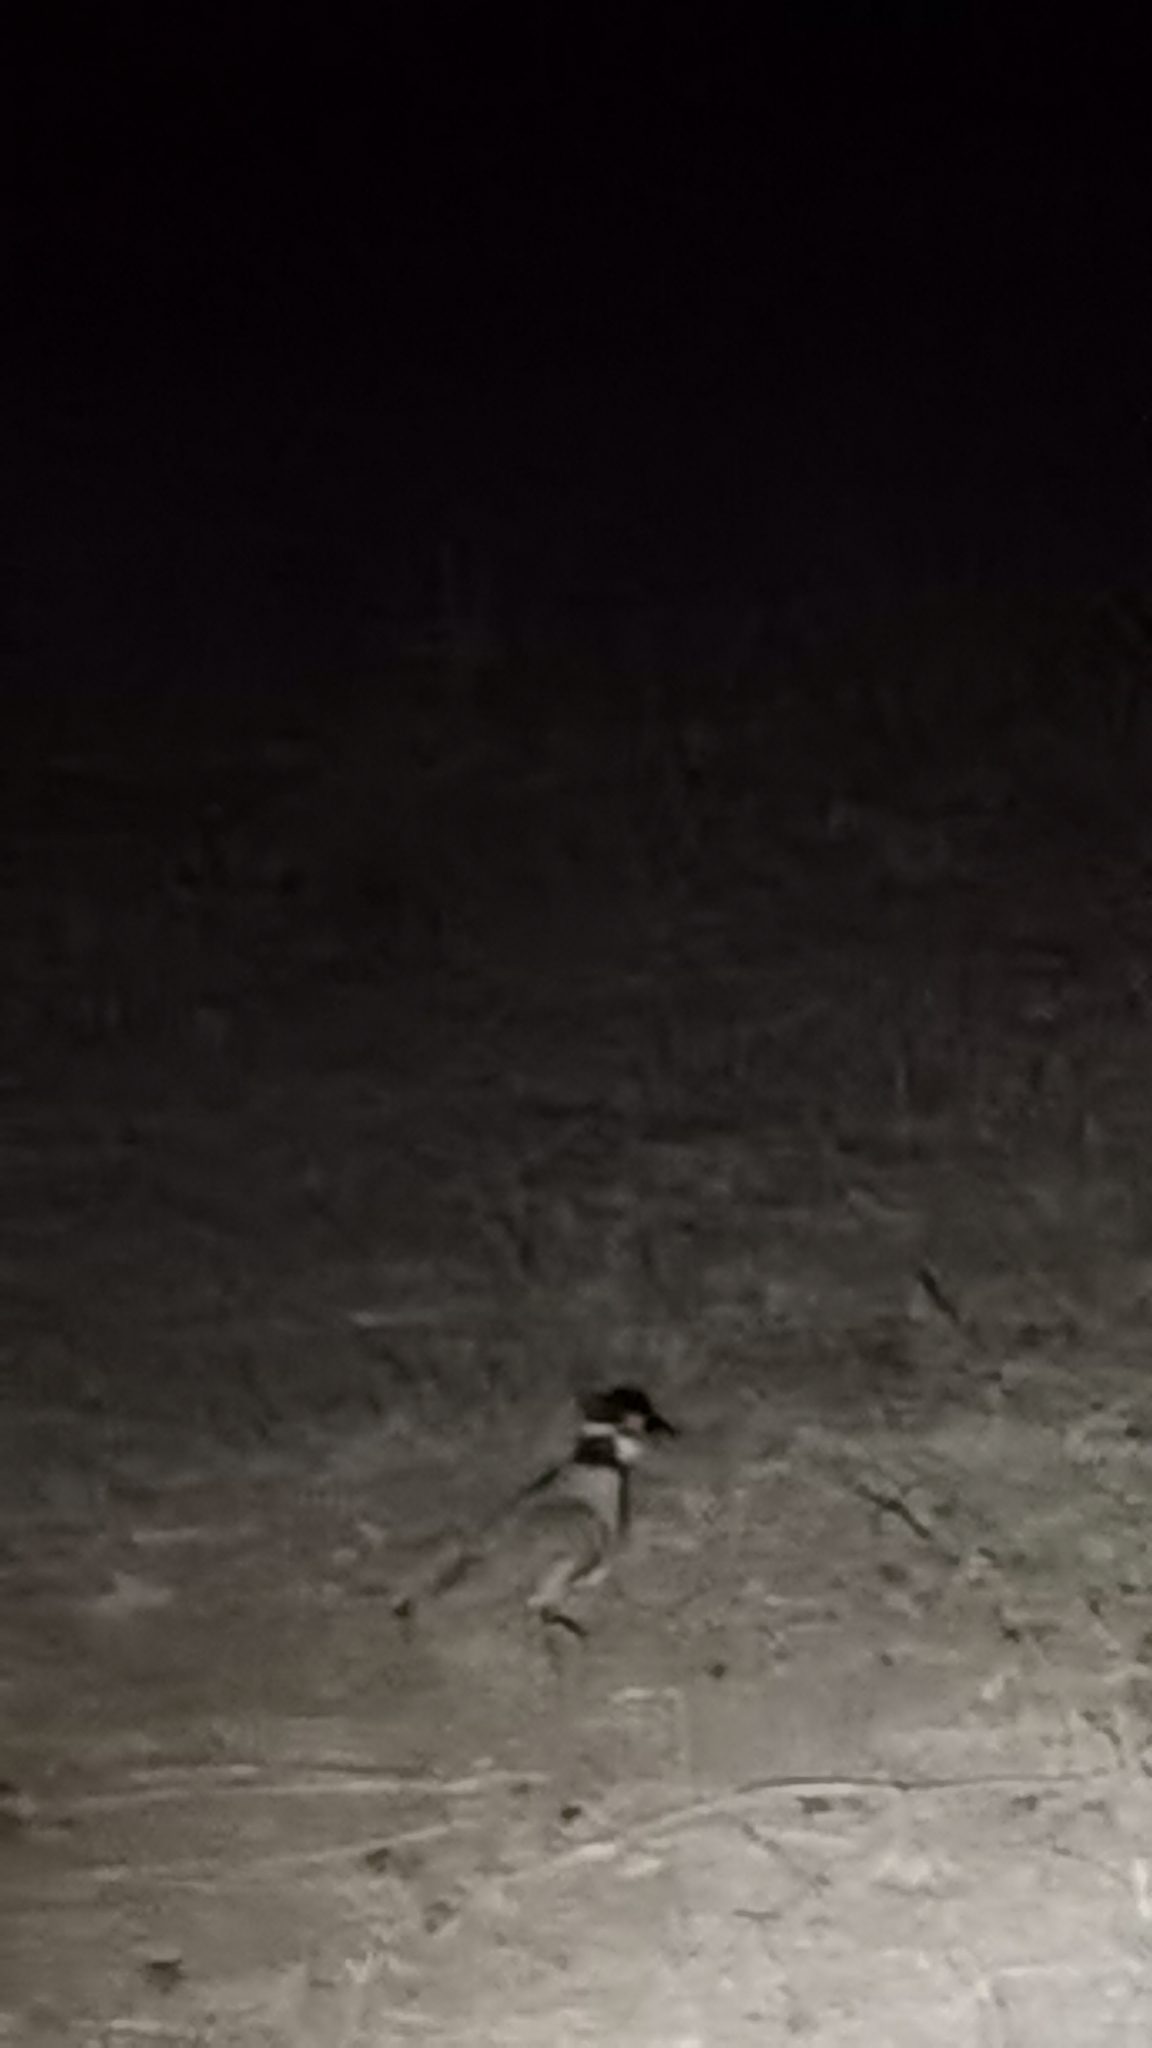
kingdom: Animalia
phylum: Chordata
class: Aves
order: Charadriiformes
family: Charadriidae
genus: Vanellus
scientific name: Vanellus tectus
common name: Black-headed lapwing
